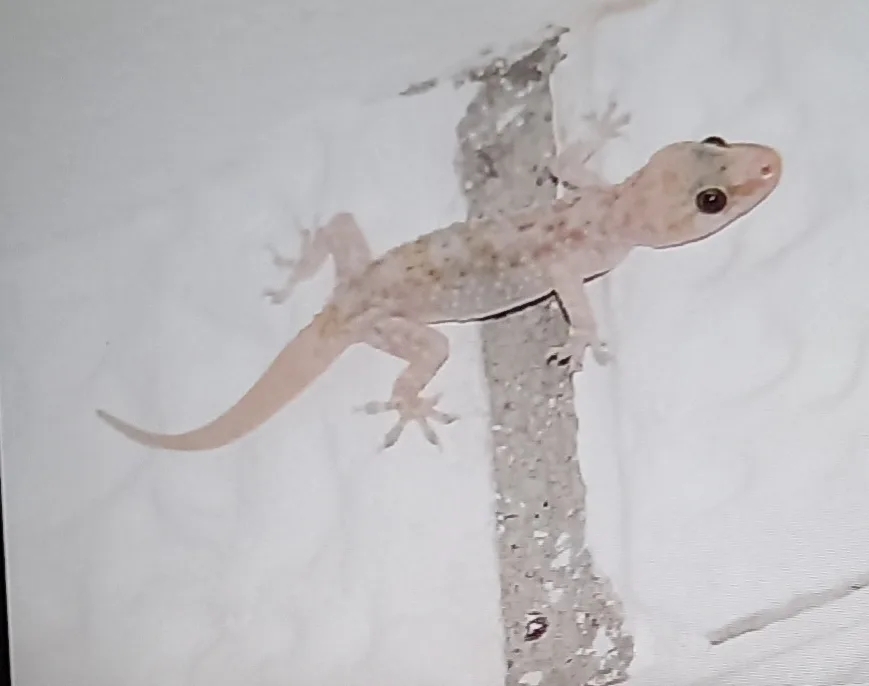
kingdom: Animalia
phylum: Chordata
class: Squamata
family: Gekkonidae
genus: Hemidactylus
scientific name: Hemidactylus turcicus
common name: Turkish gecko
